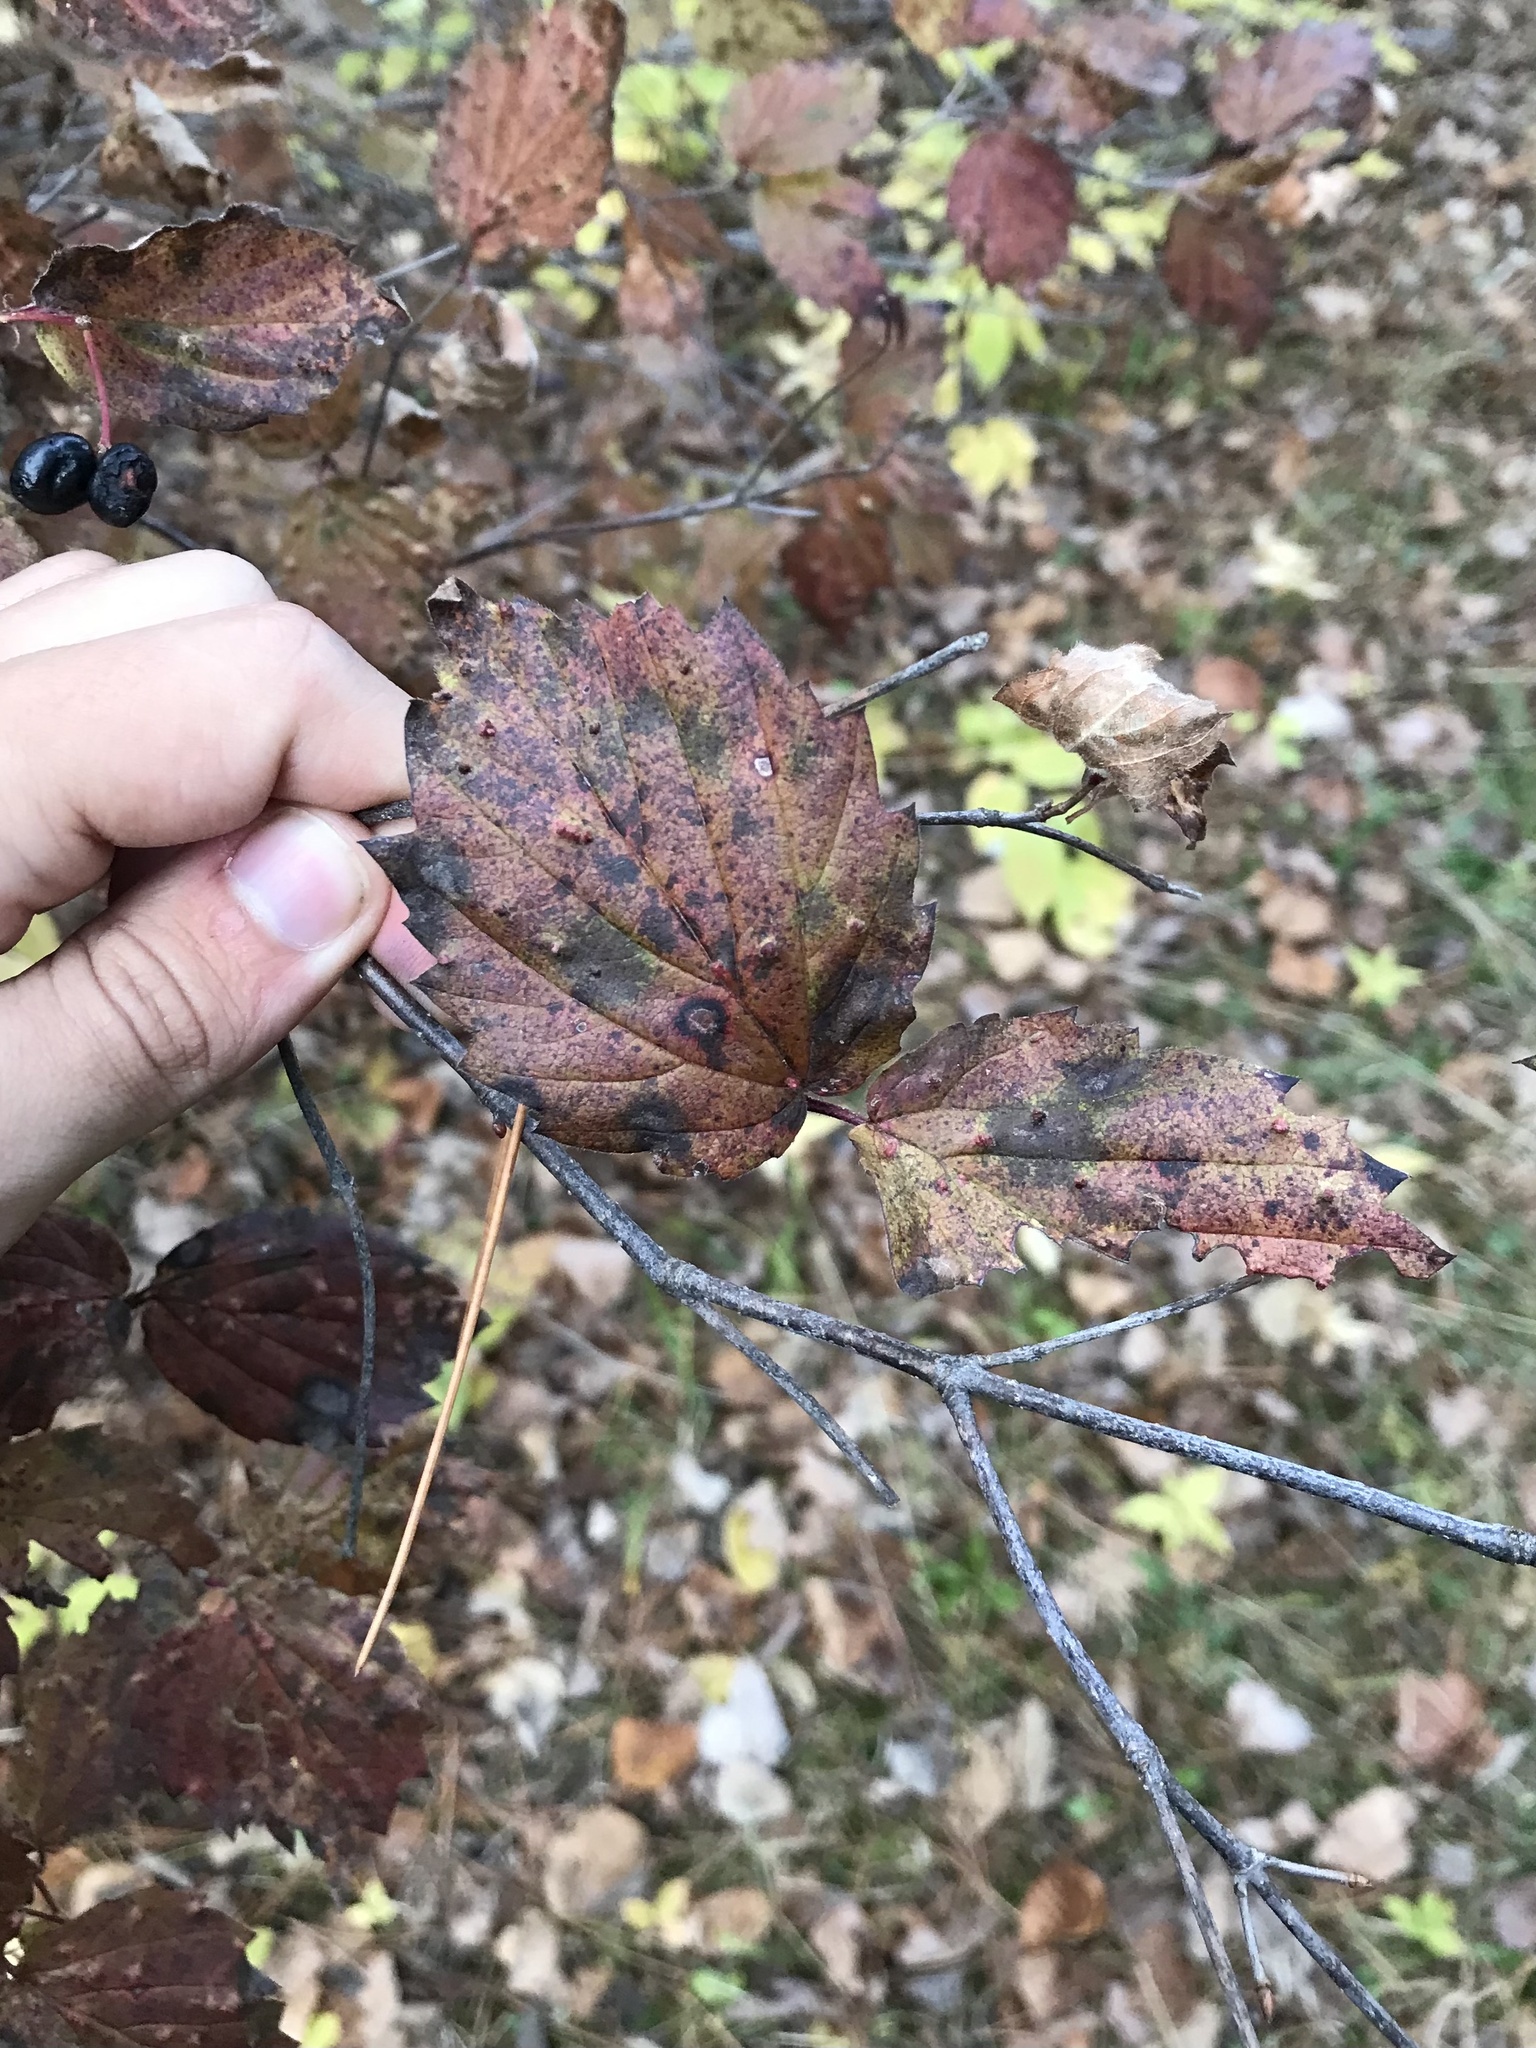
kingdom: Plantae
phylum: Tracheophyta
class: Magnoliopsida
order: Dipsacales
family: Viburnaceae
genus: Viburnum
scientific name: Viburnum rafinesqueanum
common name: Downy arrow-wood
